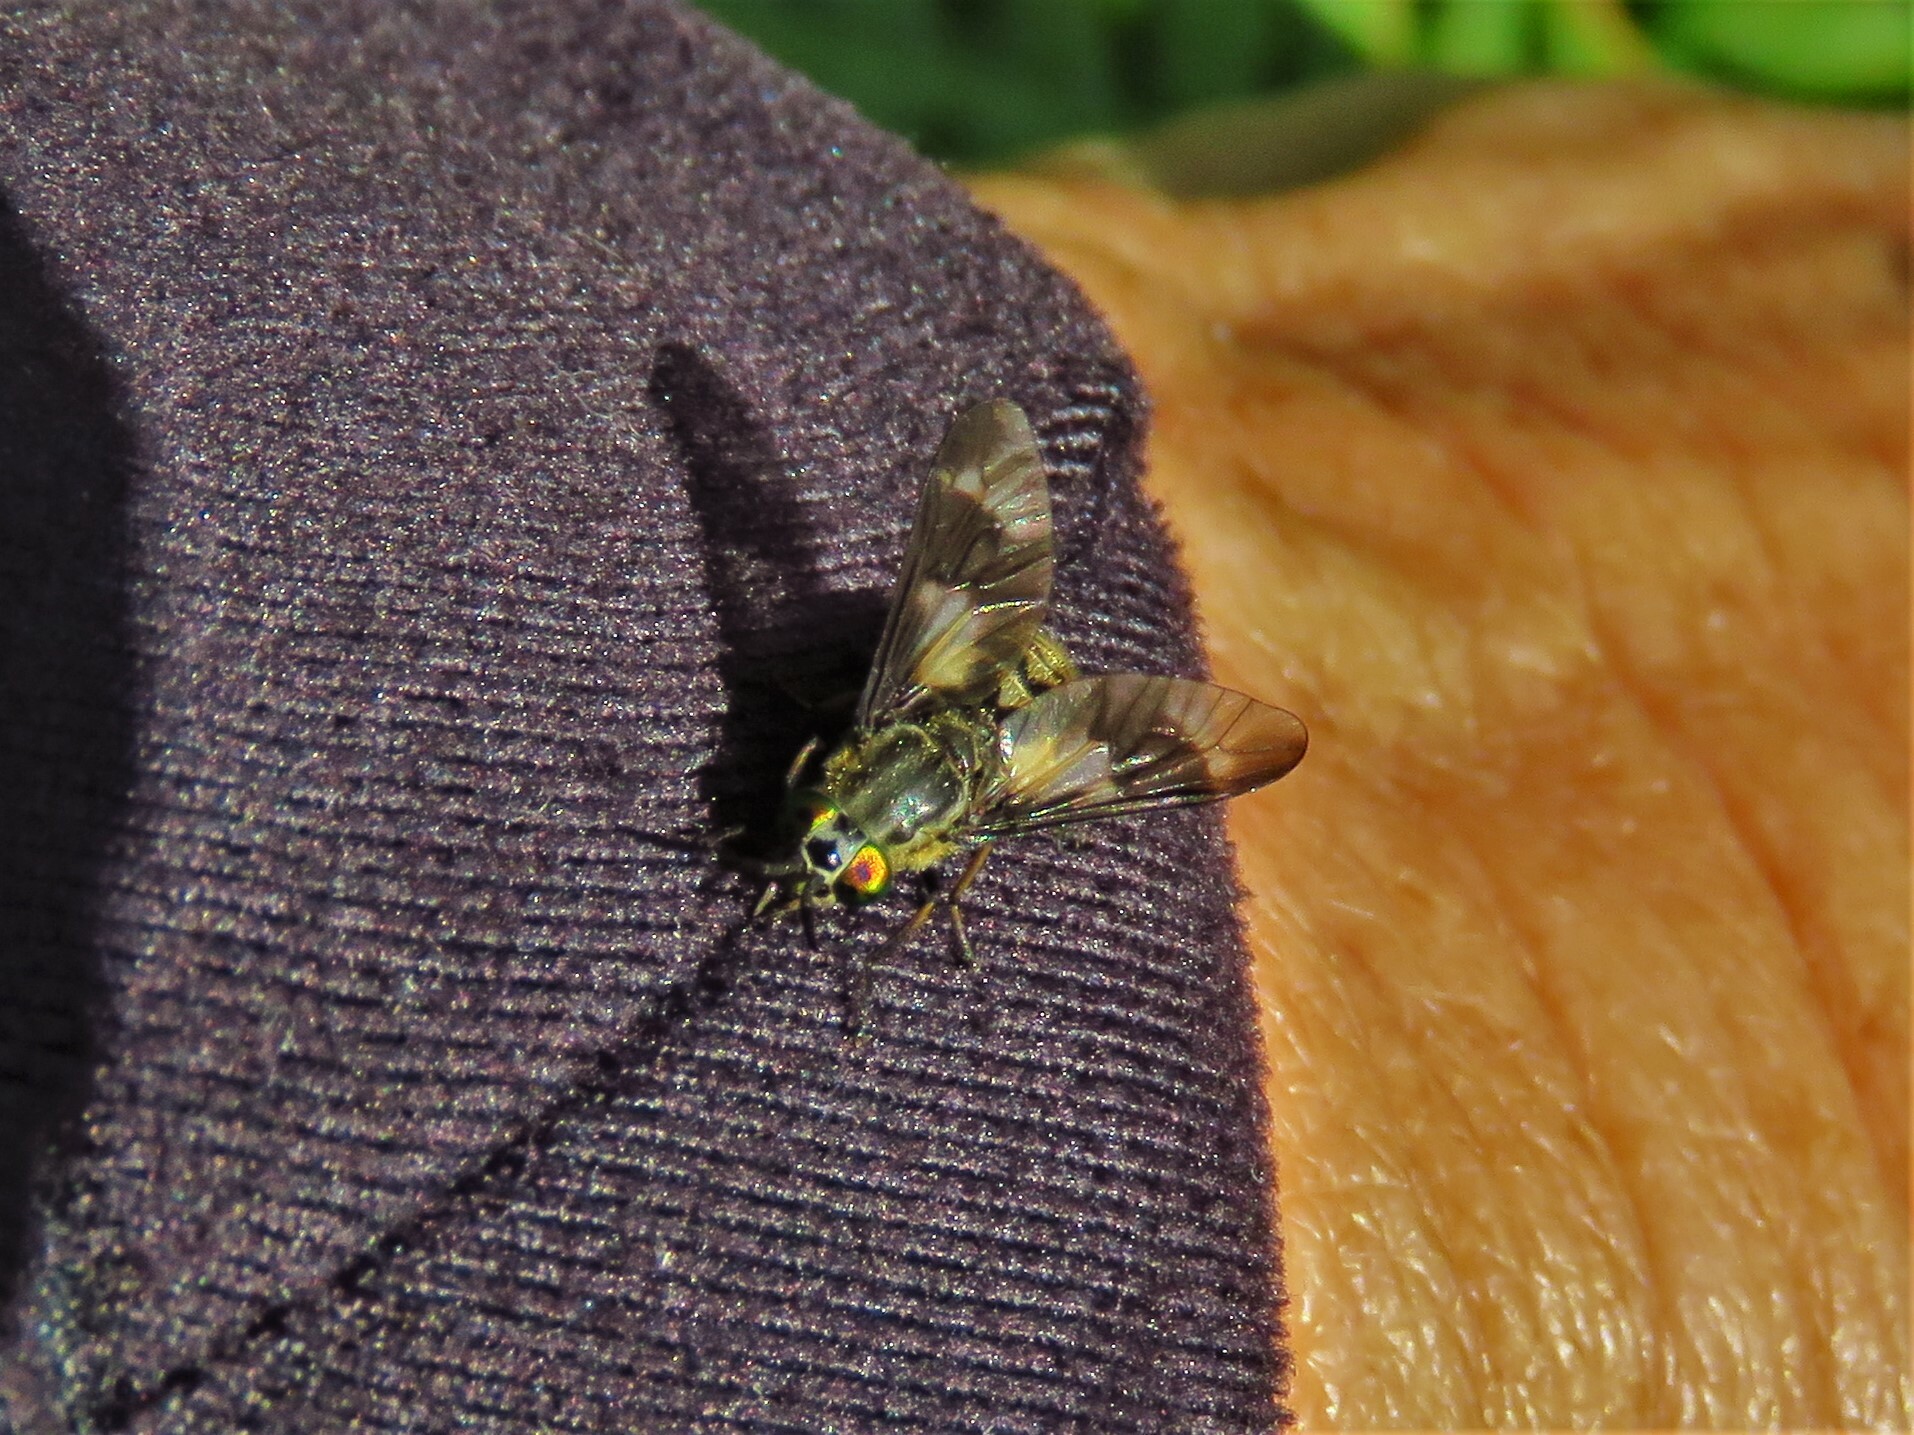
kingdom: Animalia
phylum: Arthropoda
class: Insecta
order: Diptera
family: Tabanidae
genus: Chrysops
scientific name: Chrysops relictus
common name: Twin-lobed deerfly
